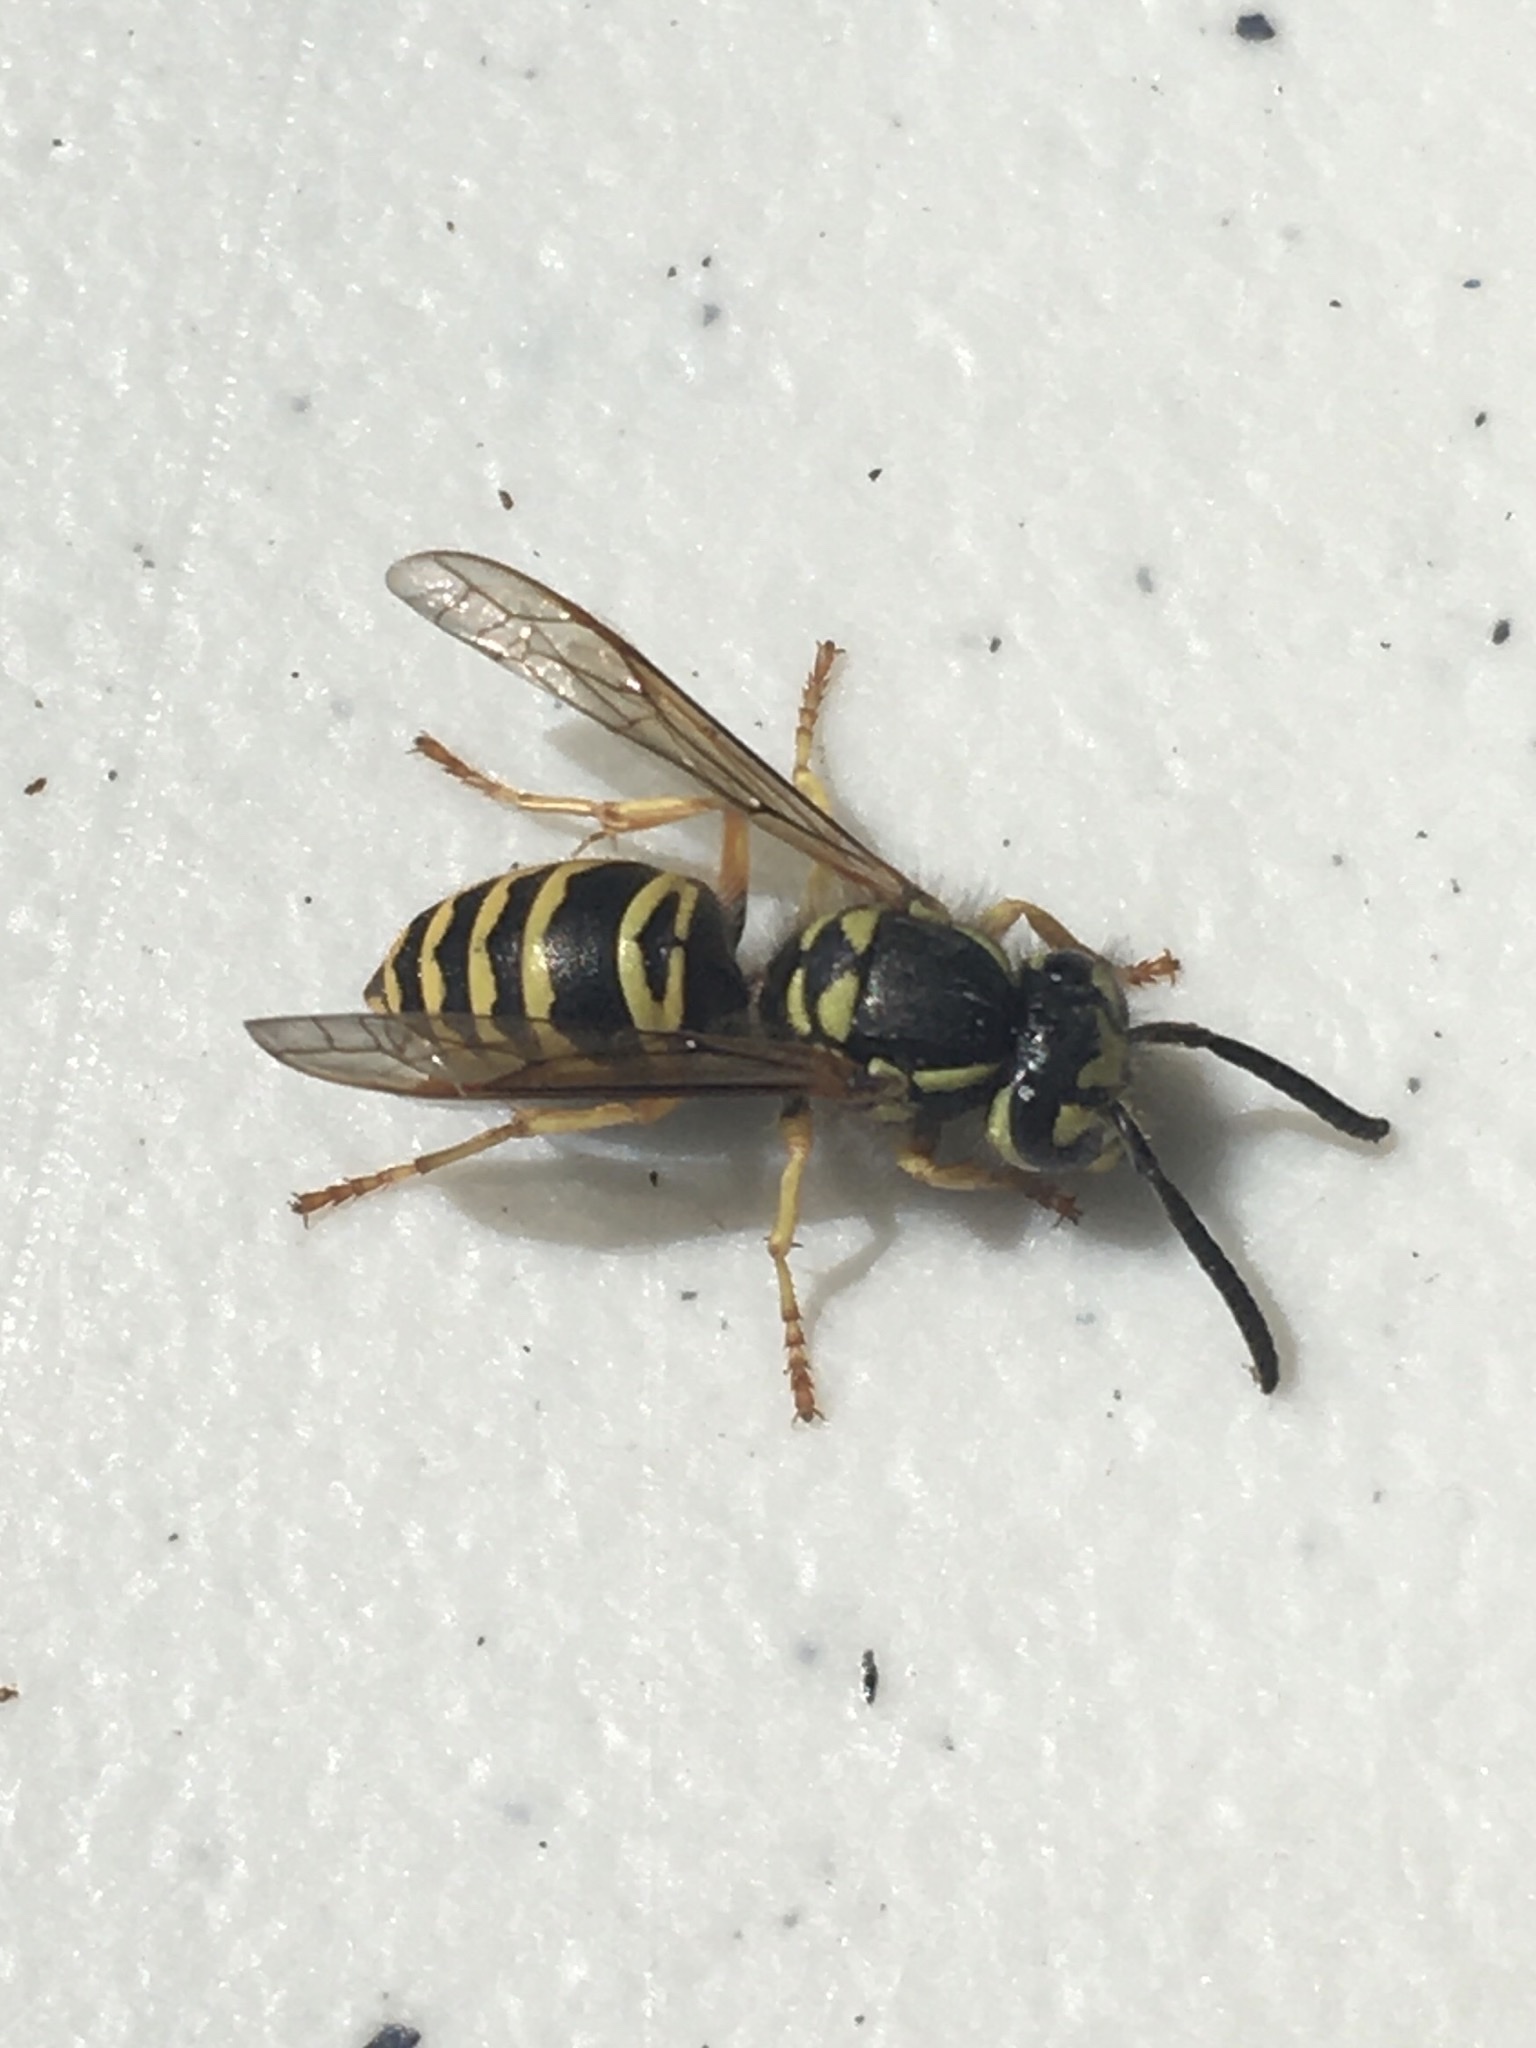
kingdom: Animalia
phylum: Arthropoda
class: Insecta
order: Hymenoptera
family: Vespidae
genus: Vespula
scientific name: Vespula maculifrons
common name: Eastern yellowjacket
